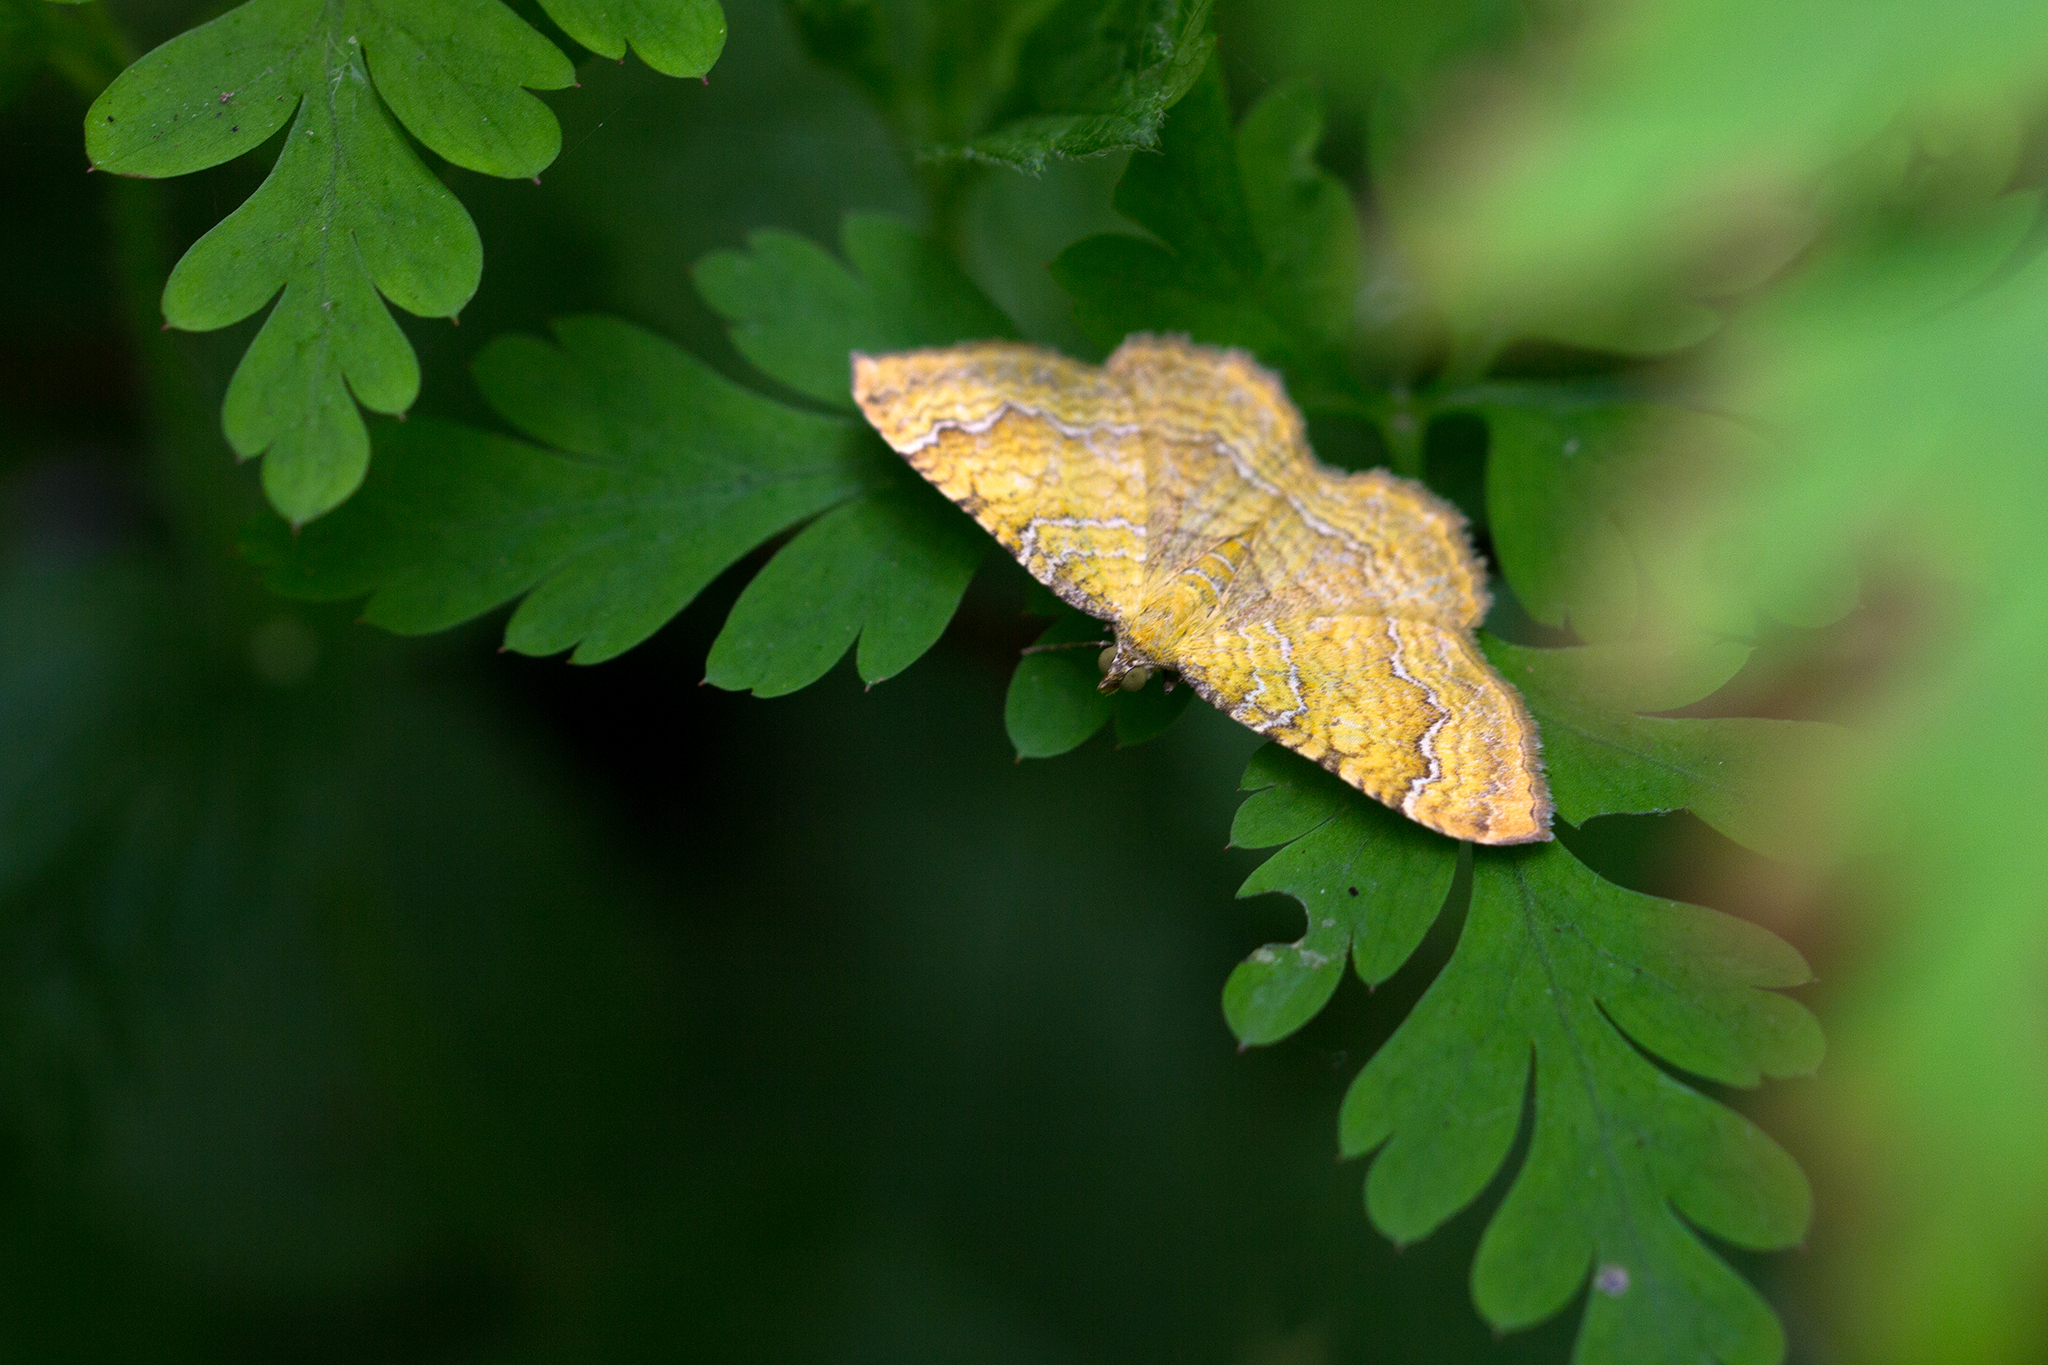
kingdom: Animalia
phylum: Arthropoda
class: Insecta
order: Lepidoptera
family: Geometridae
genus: Camptogramma
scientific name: Camptogramma bilineata
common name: Yellow shell
